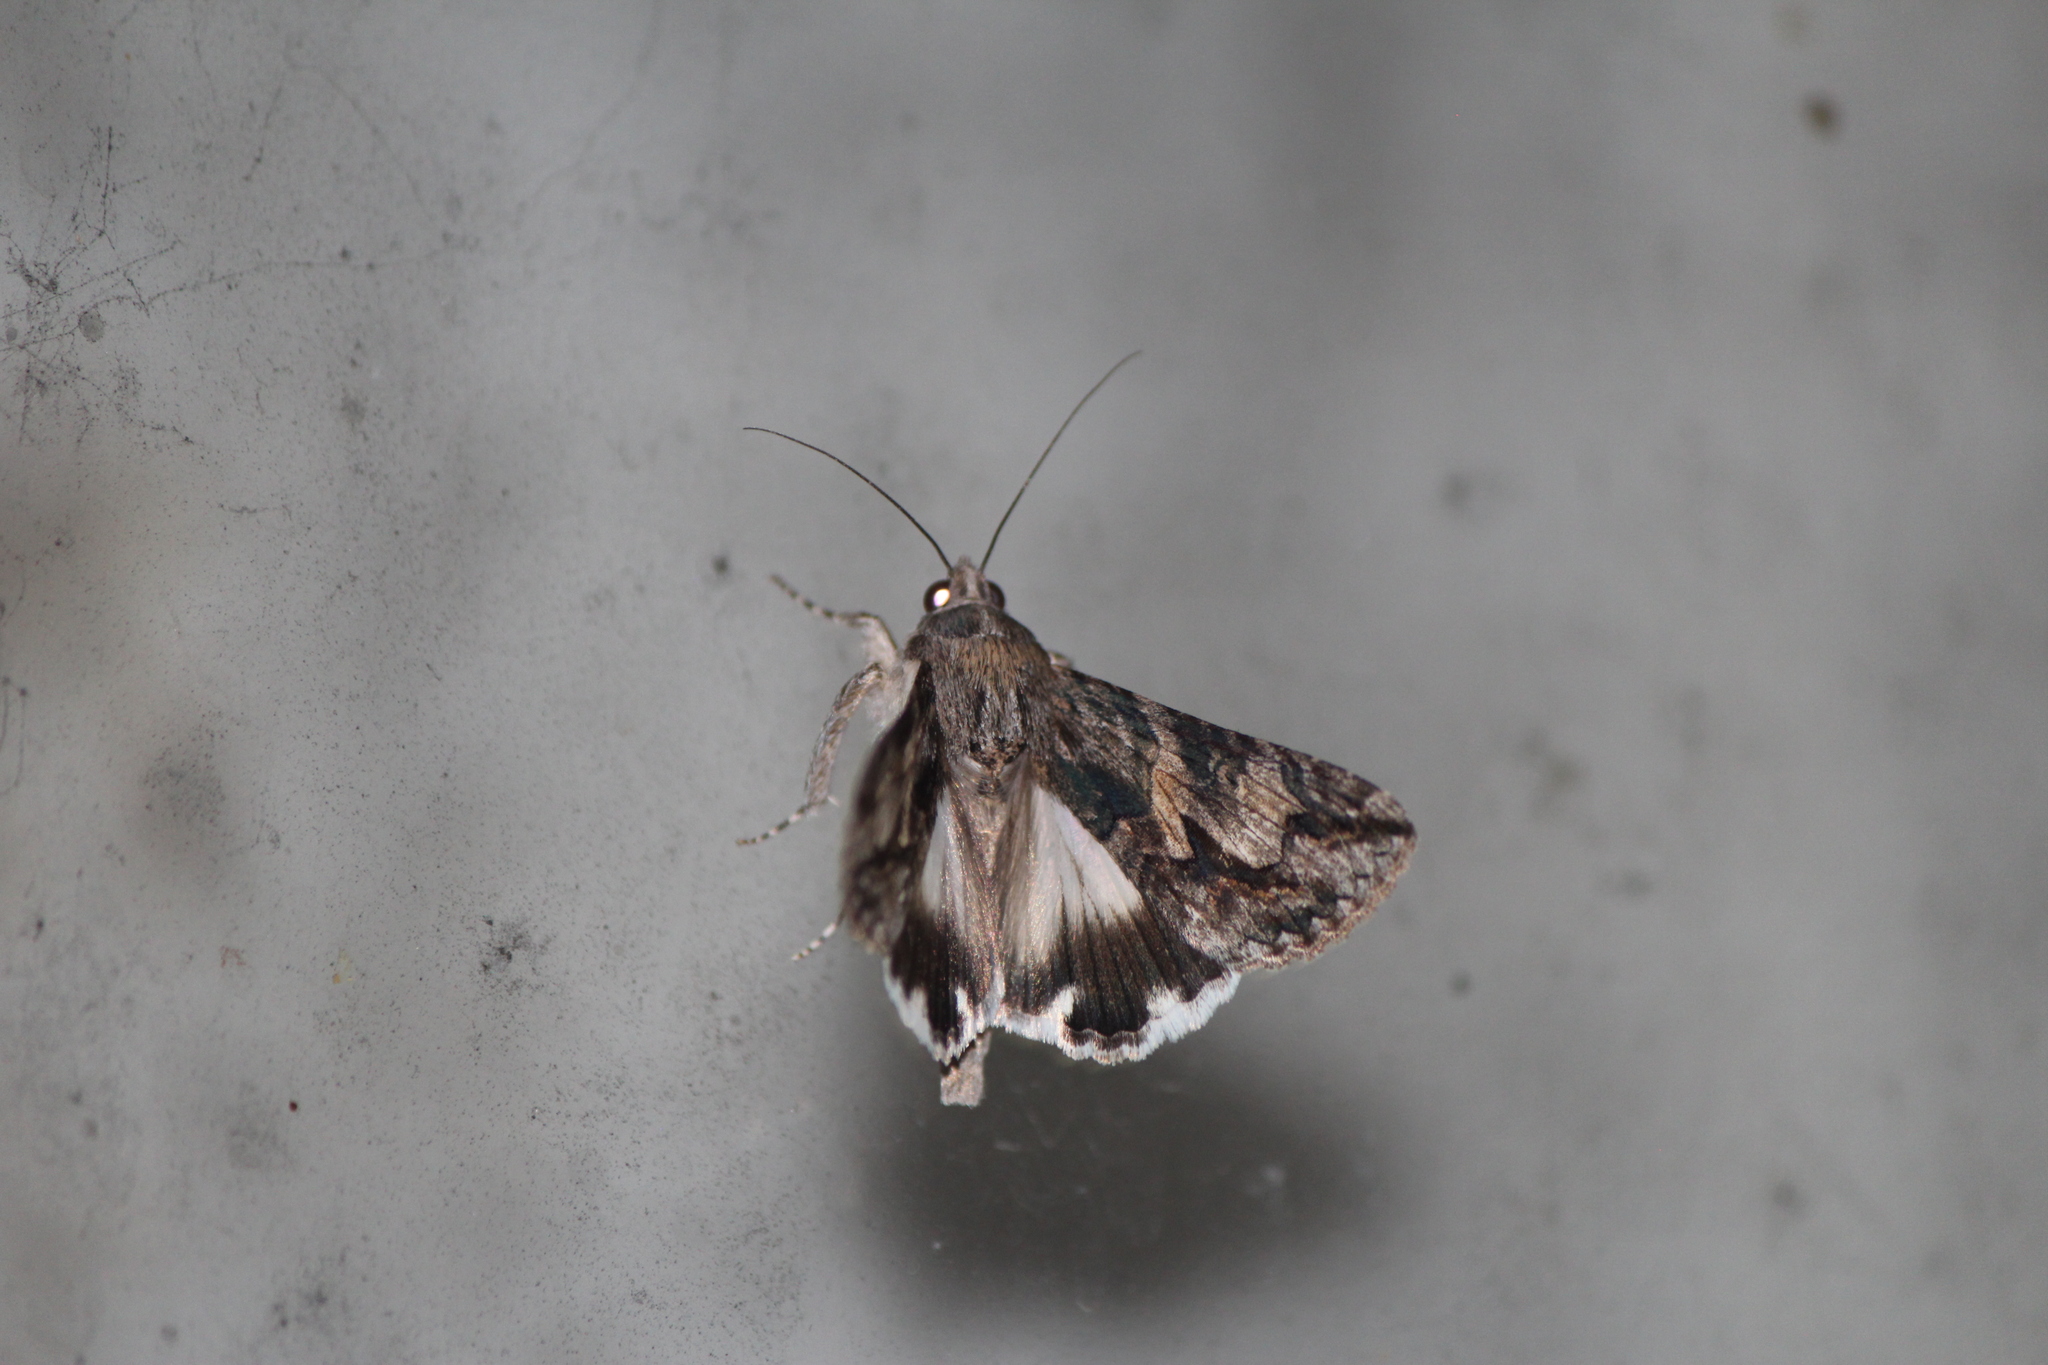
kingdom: Animalia
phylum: Arthropoda
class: Insecta
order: Lepidoptera
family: Erebidae
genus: Melipotis
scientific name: Melipotis jucunda
